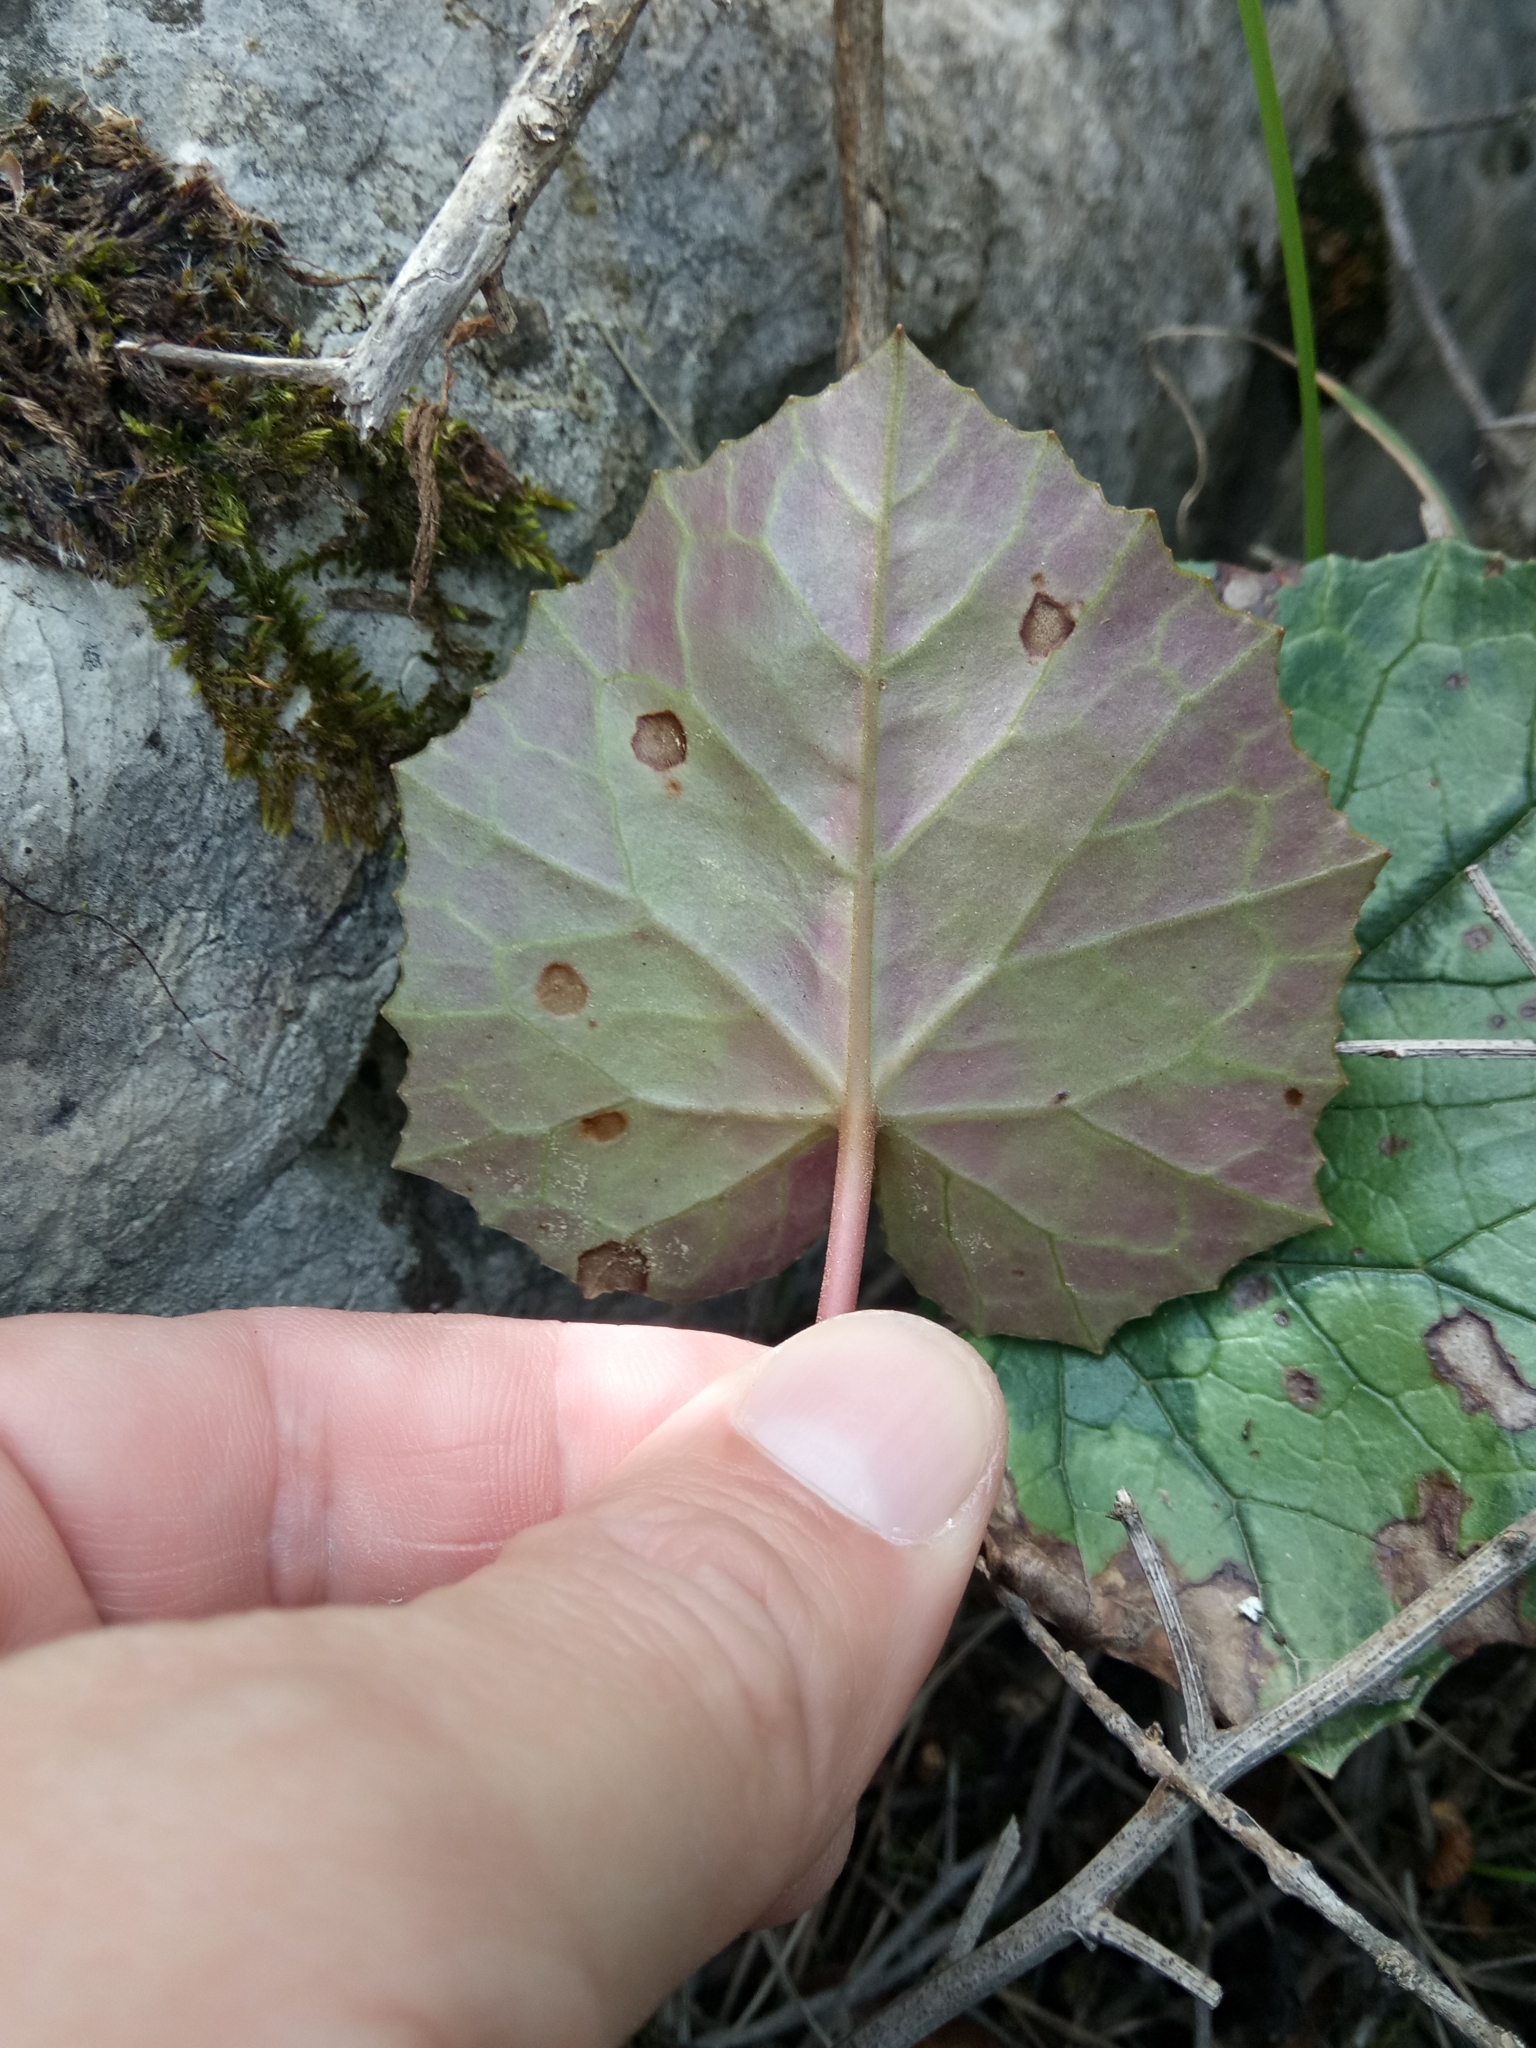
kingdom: Plantae
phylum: Tracheophyta
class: Magnoliopsida
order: Ericales
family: Primulaceae
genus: Cyclamen
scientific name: Cyclamen africanum
